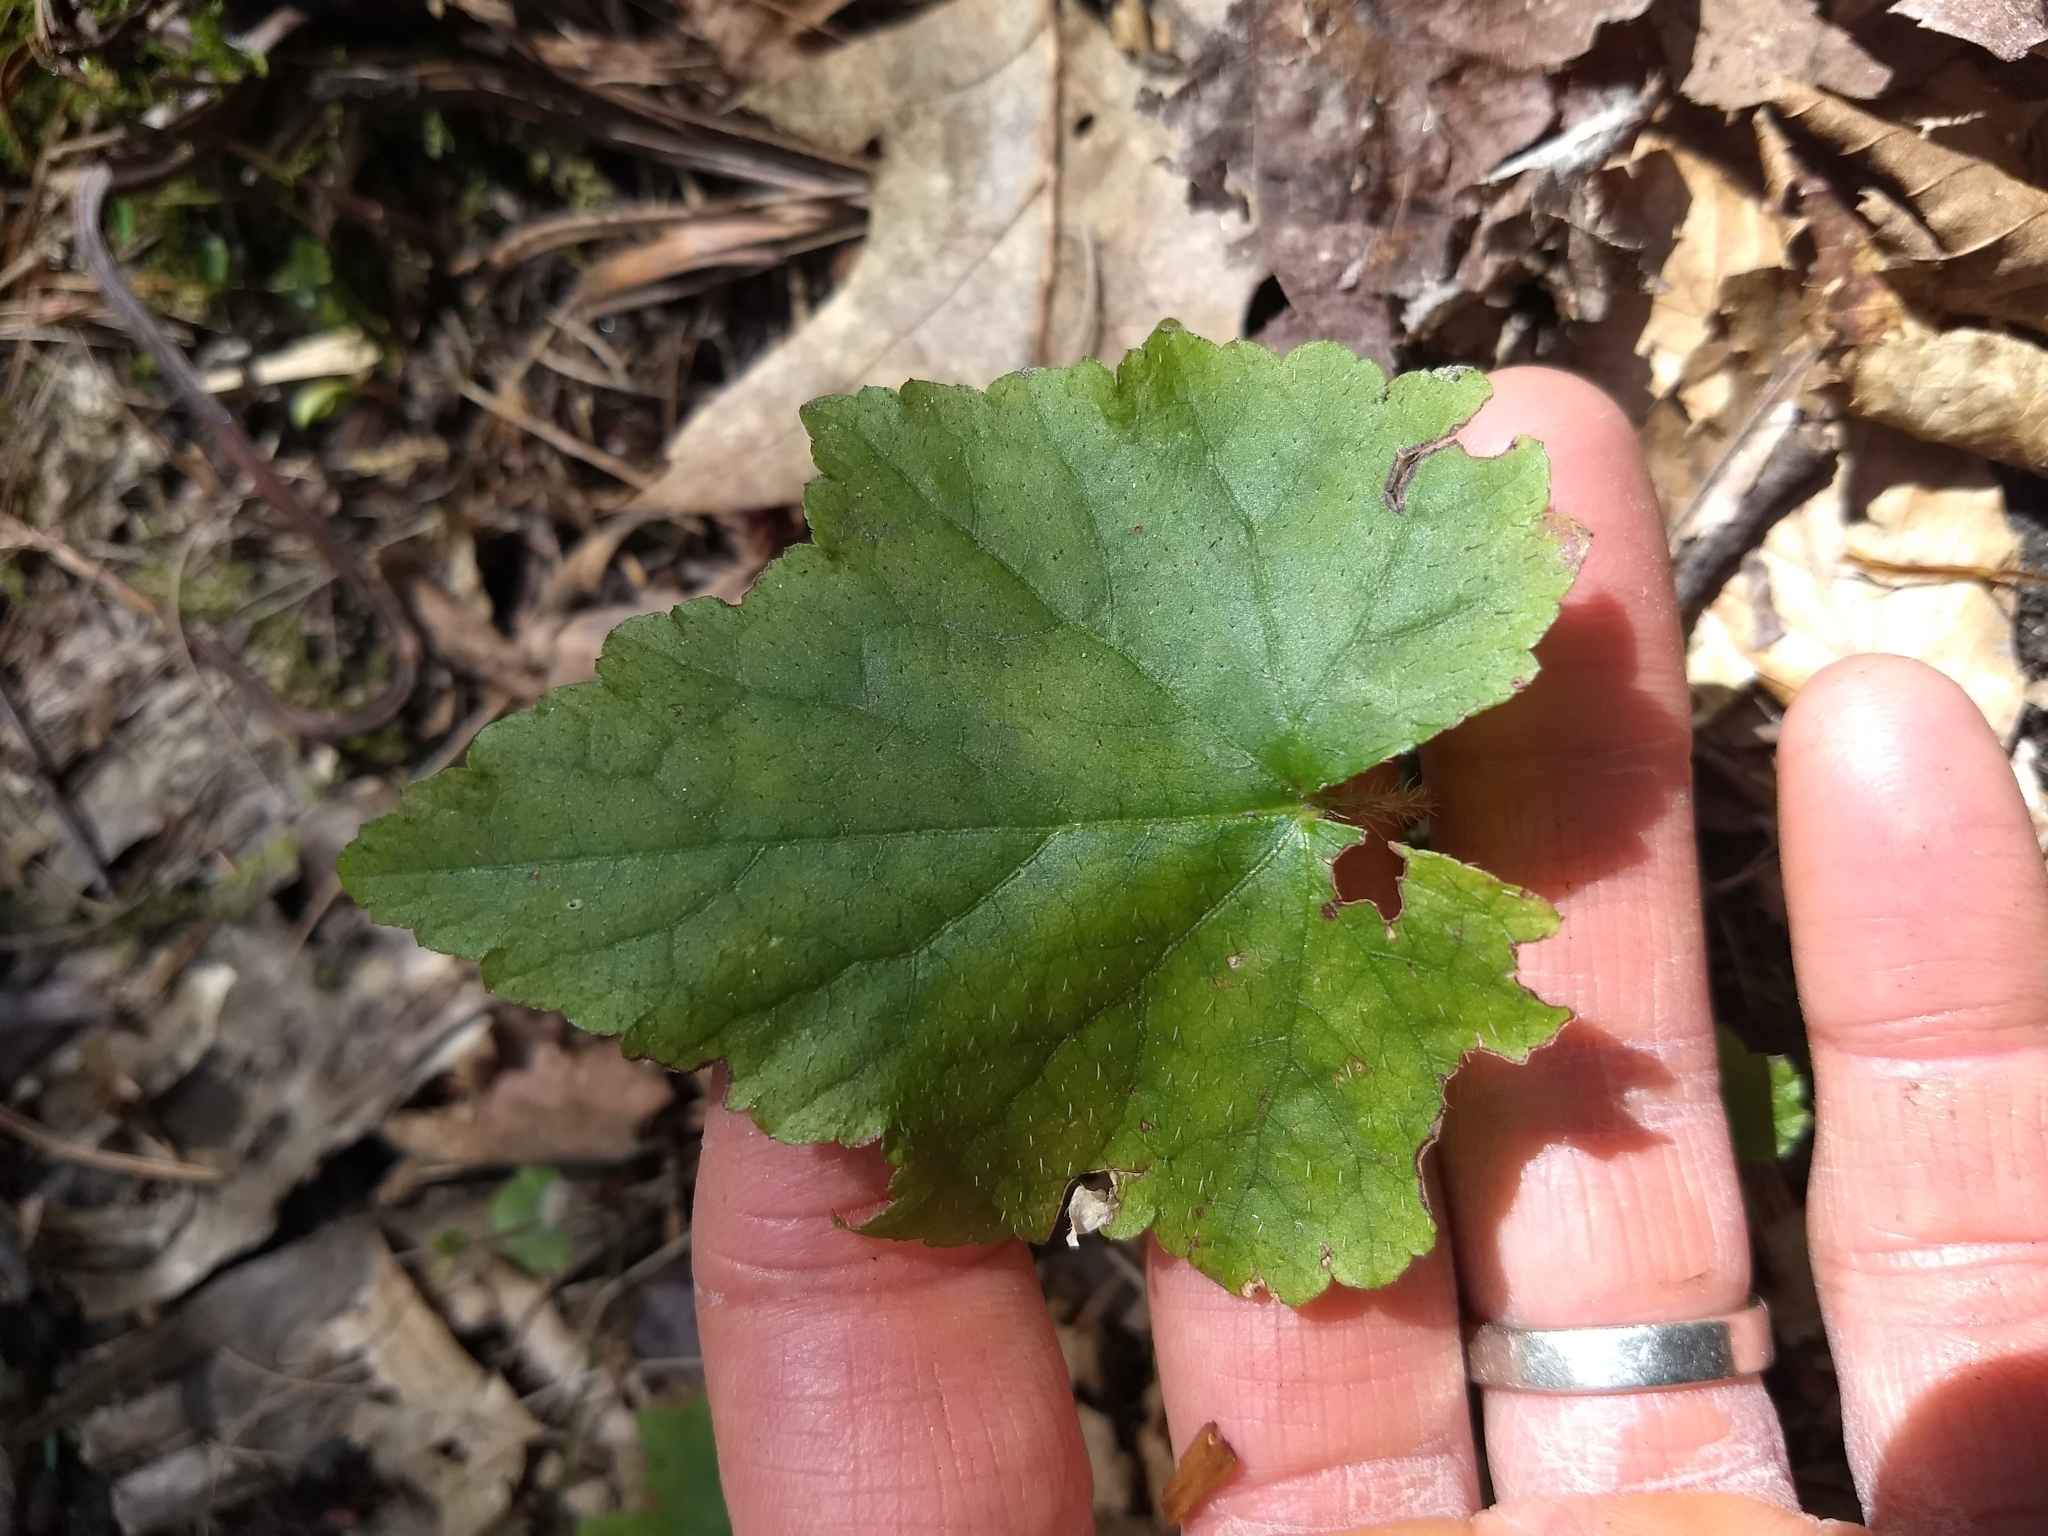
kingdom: Plantae
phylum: Tracheophyta
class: Magnoliopsida
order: Saxifragales
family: Saxifragaceae
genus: Mitella
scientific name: Mitella diphylla
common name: Coolwort
